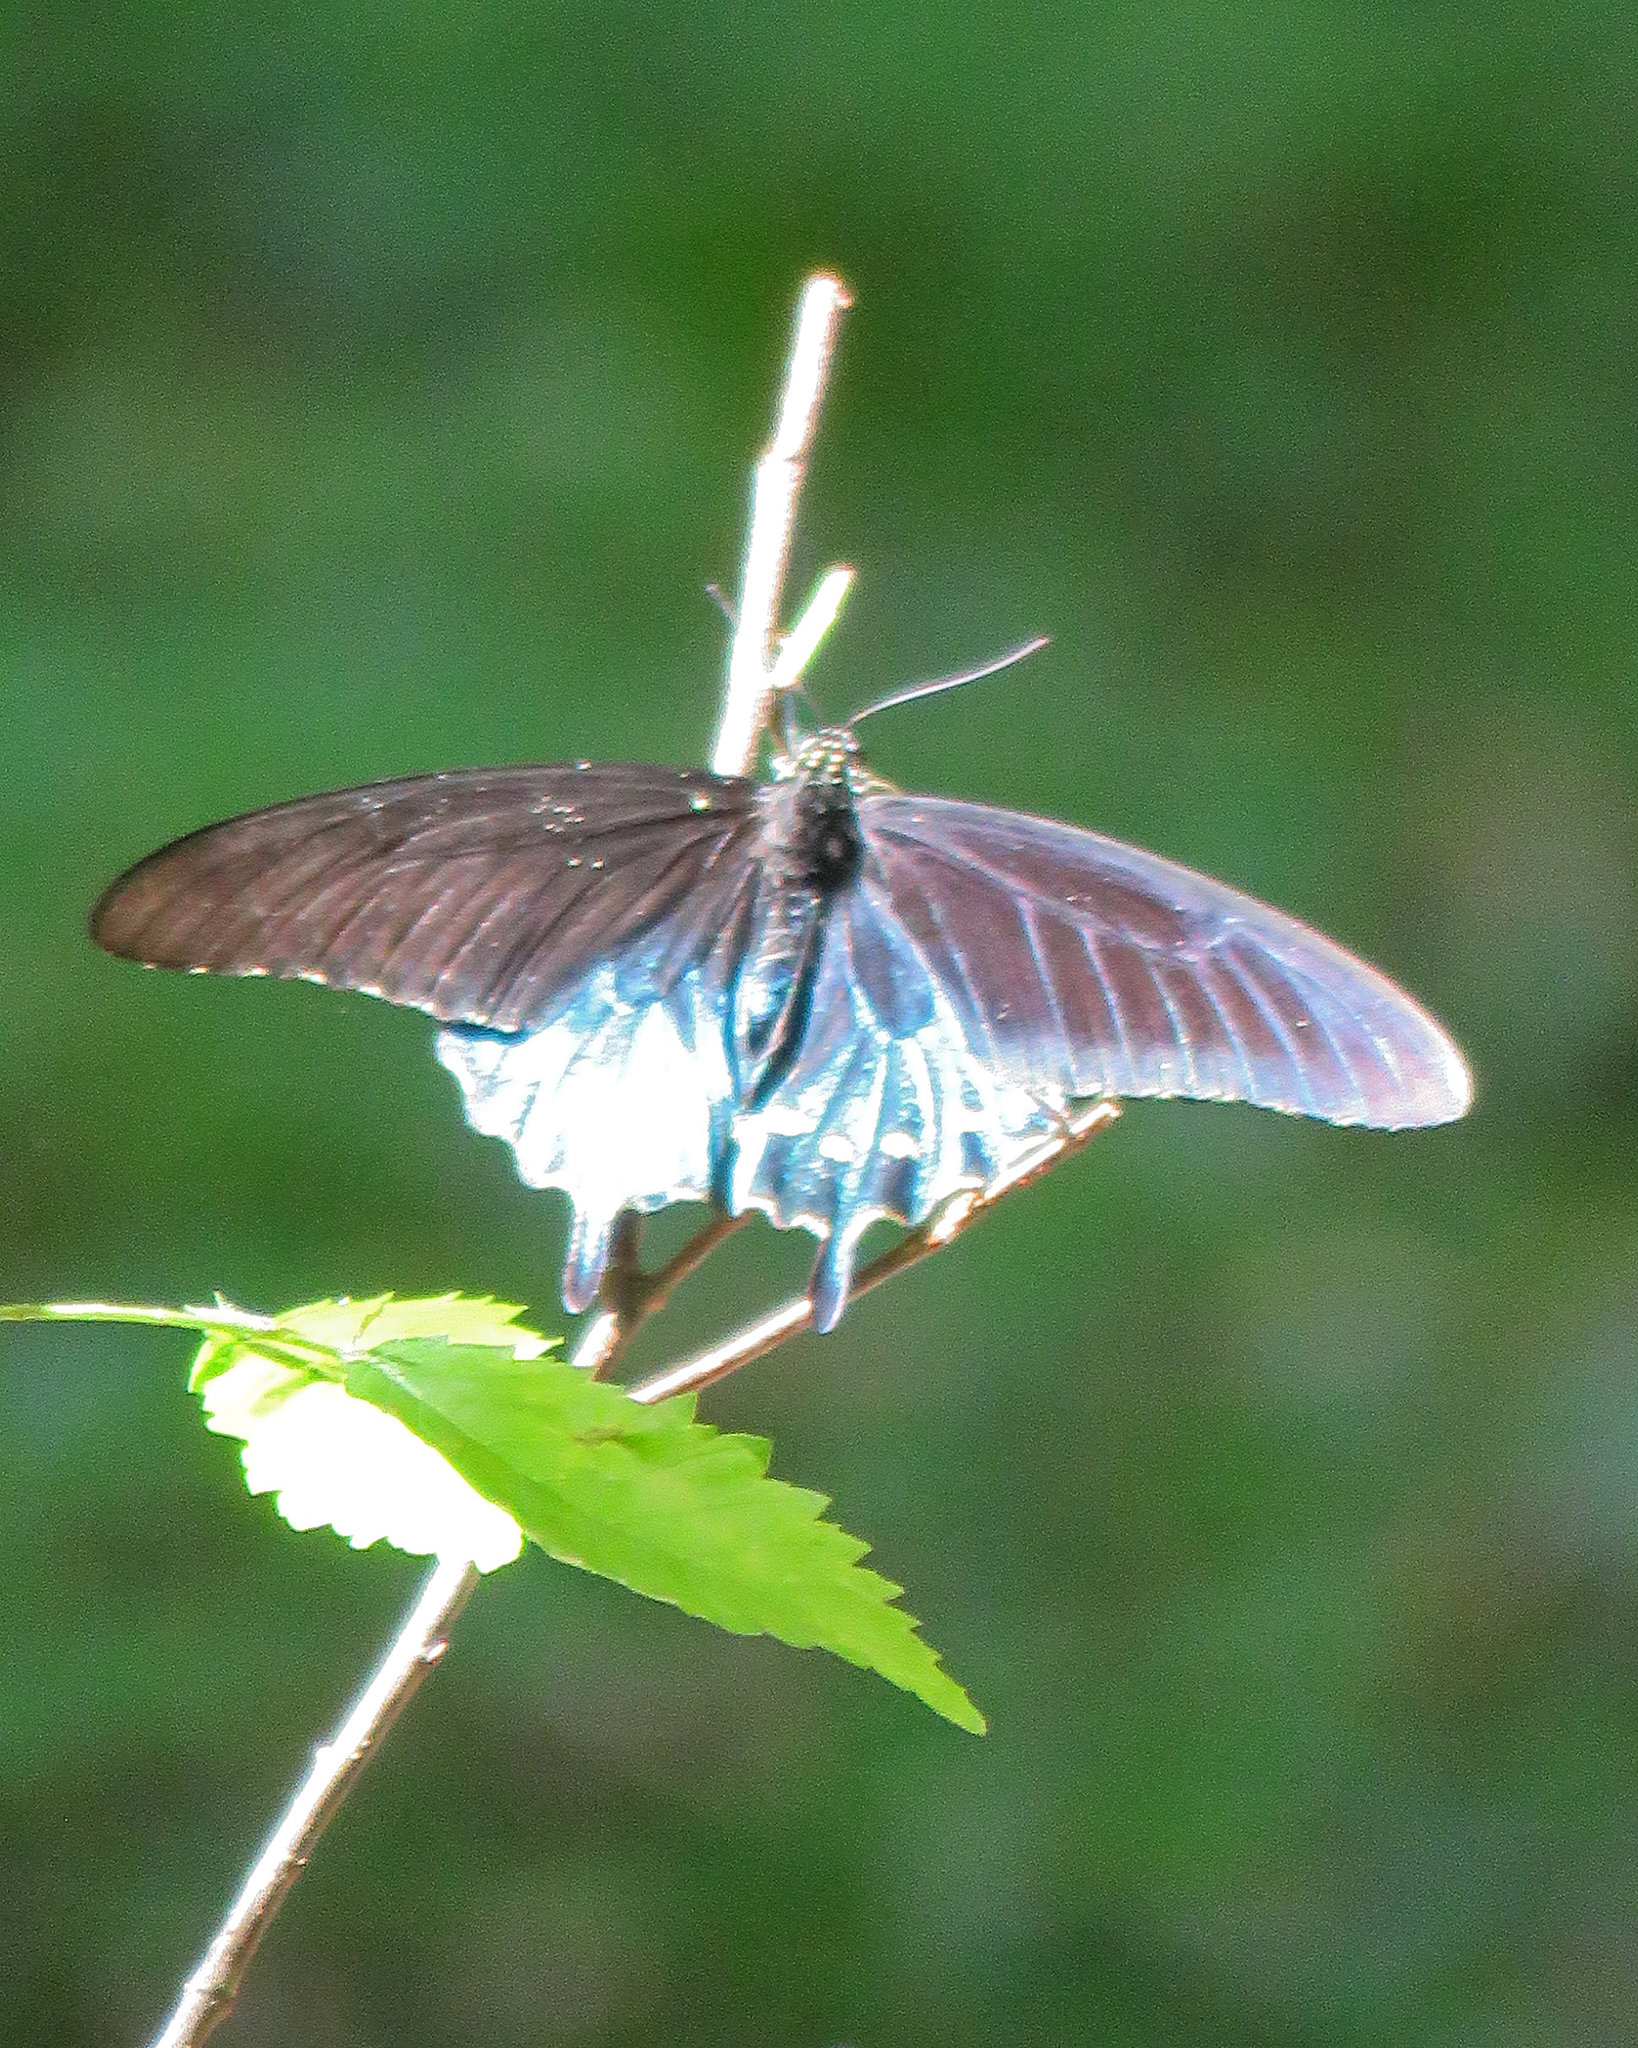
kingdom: Animalia
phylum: Arthropoda
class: Insecta
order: Lepidoptera
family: Papilionidae
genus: Battus
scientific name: Battus philenor
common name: Pipevine swallowtail
